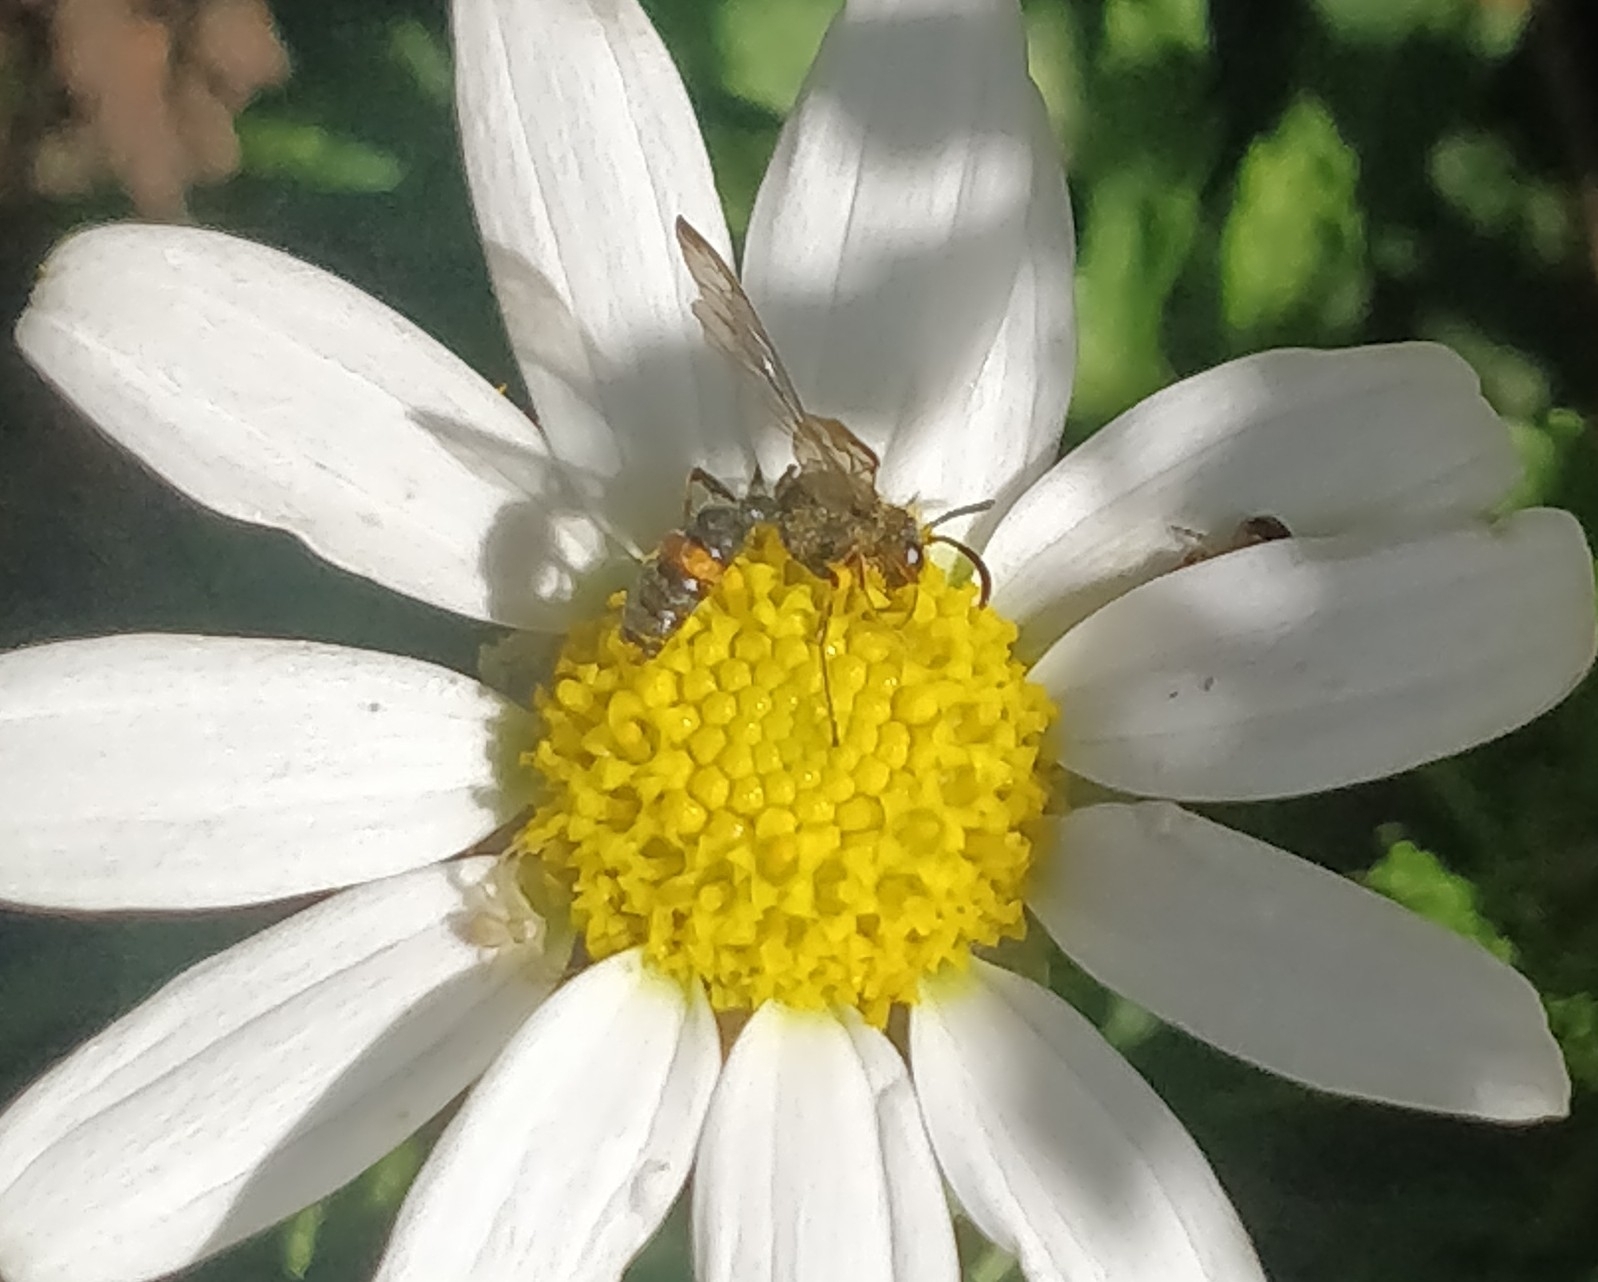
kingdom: Animalia
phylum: Arthropoda
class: Insecta
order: Hymenoptera
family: Crabronidae
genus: Cerceris
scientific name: Cerceris concinna
